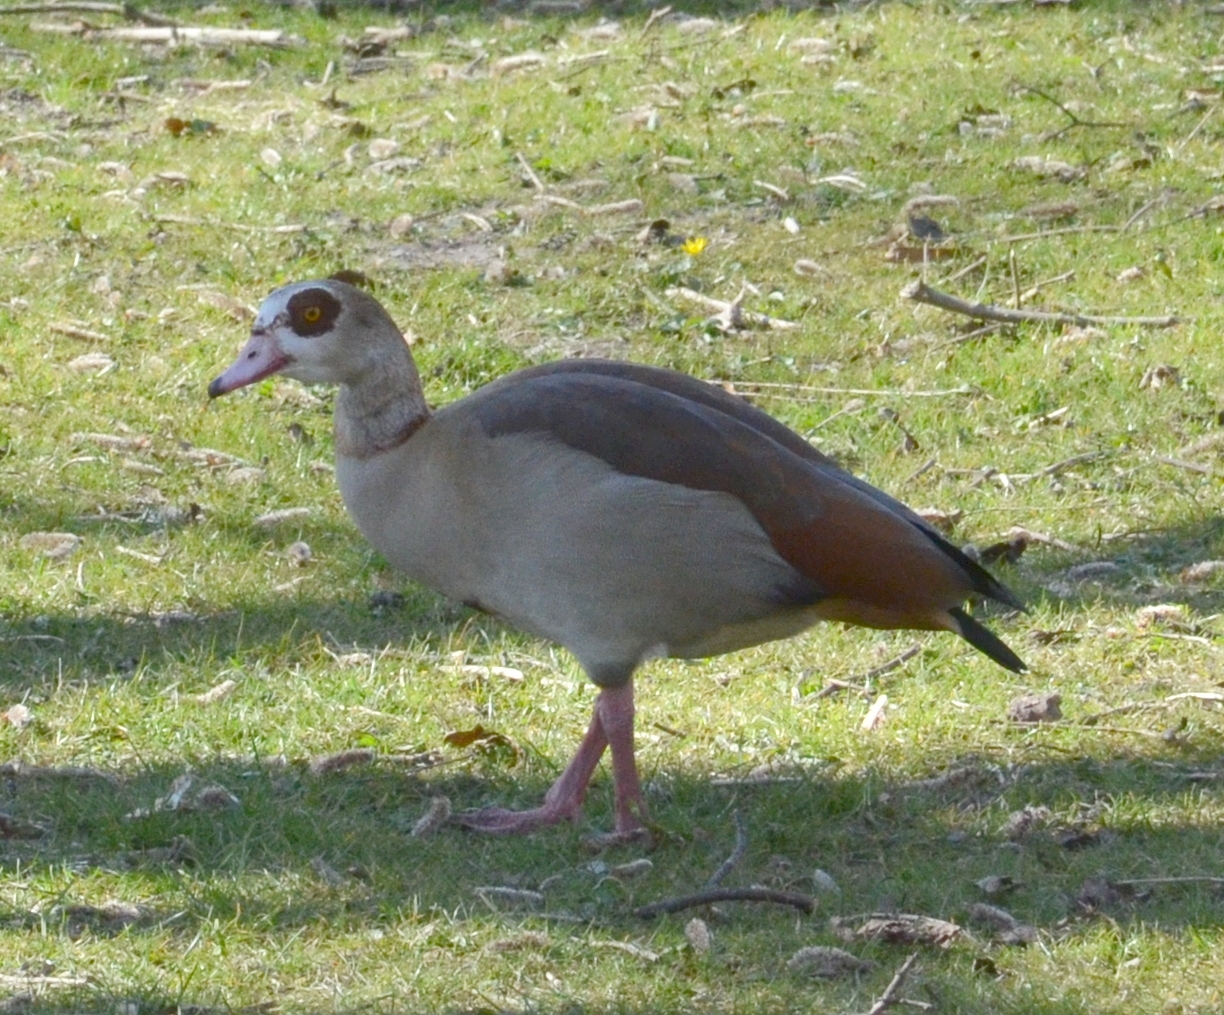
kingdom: Animalia
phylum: Chordata
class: Aves
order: Anseriformes
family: Anatidae
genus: Alopochen
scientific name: Alopochen aegyptiaca
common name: Egyptian goose
